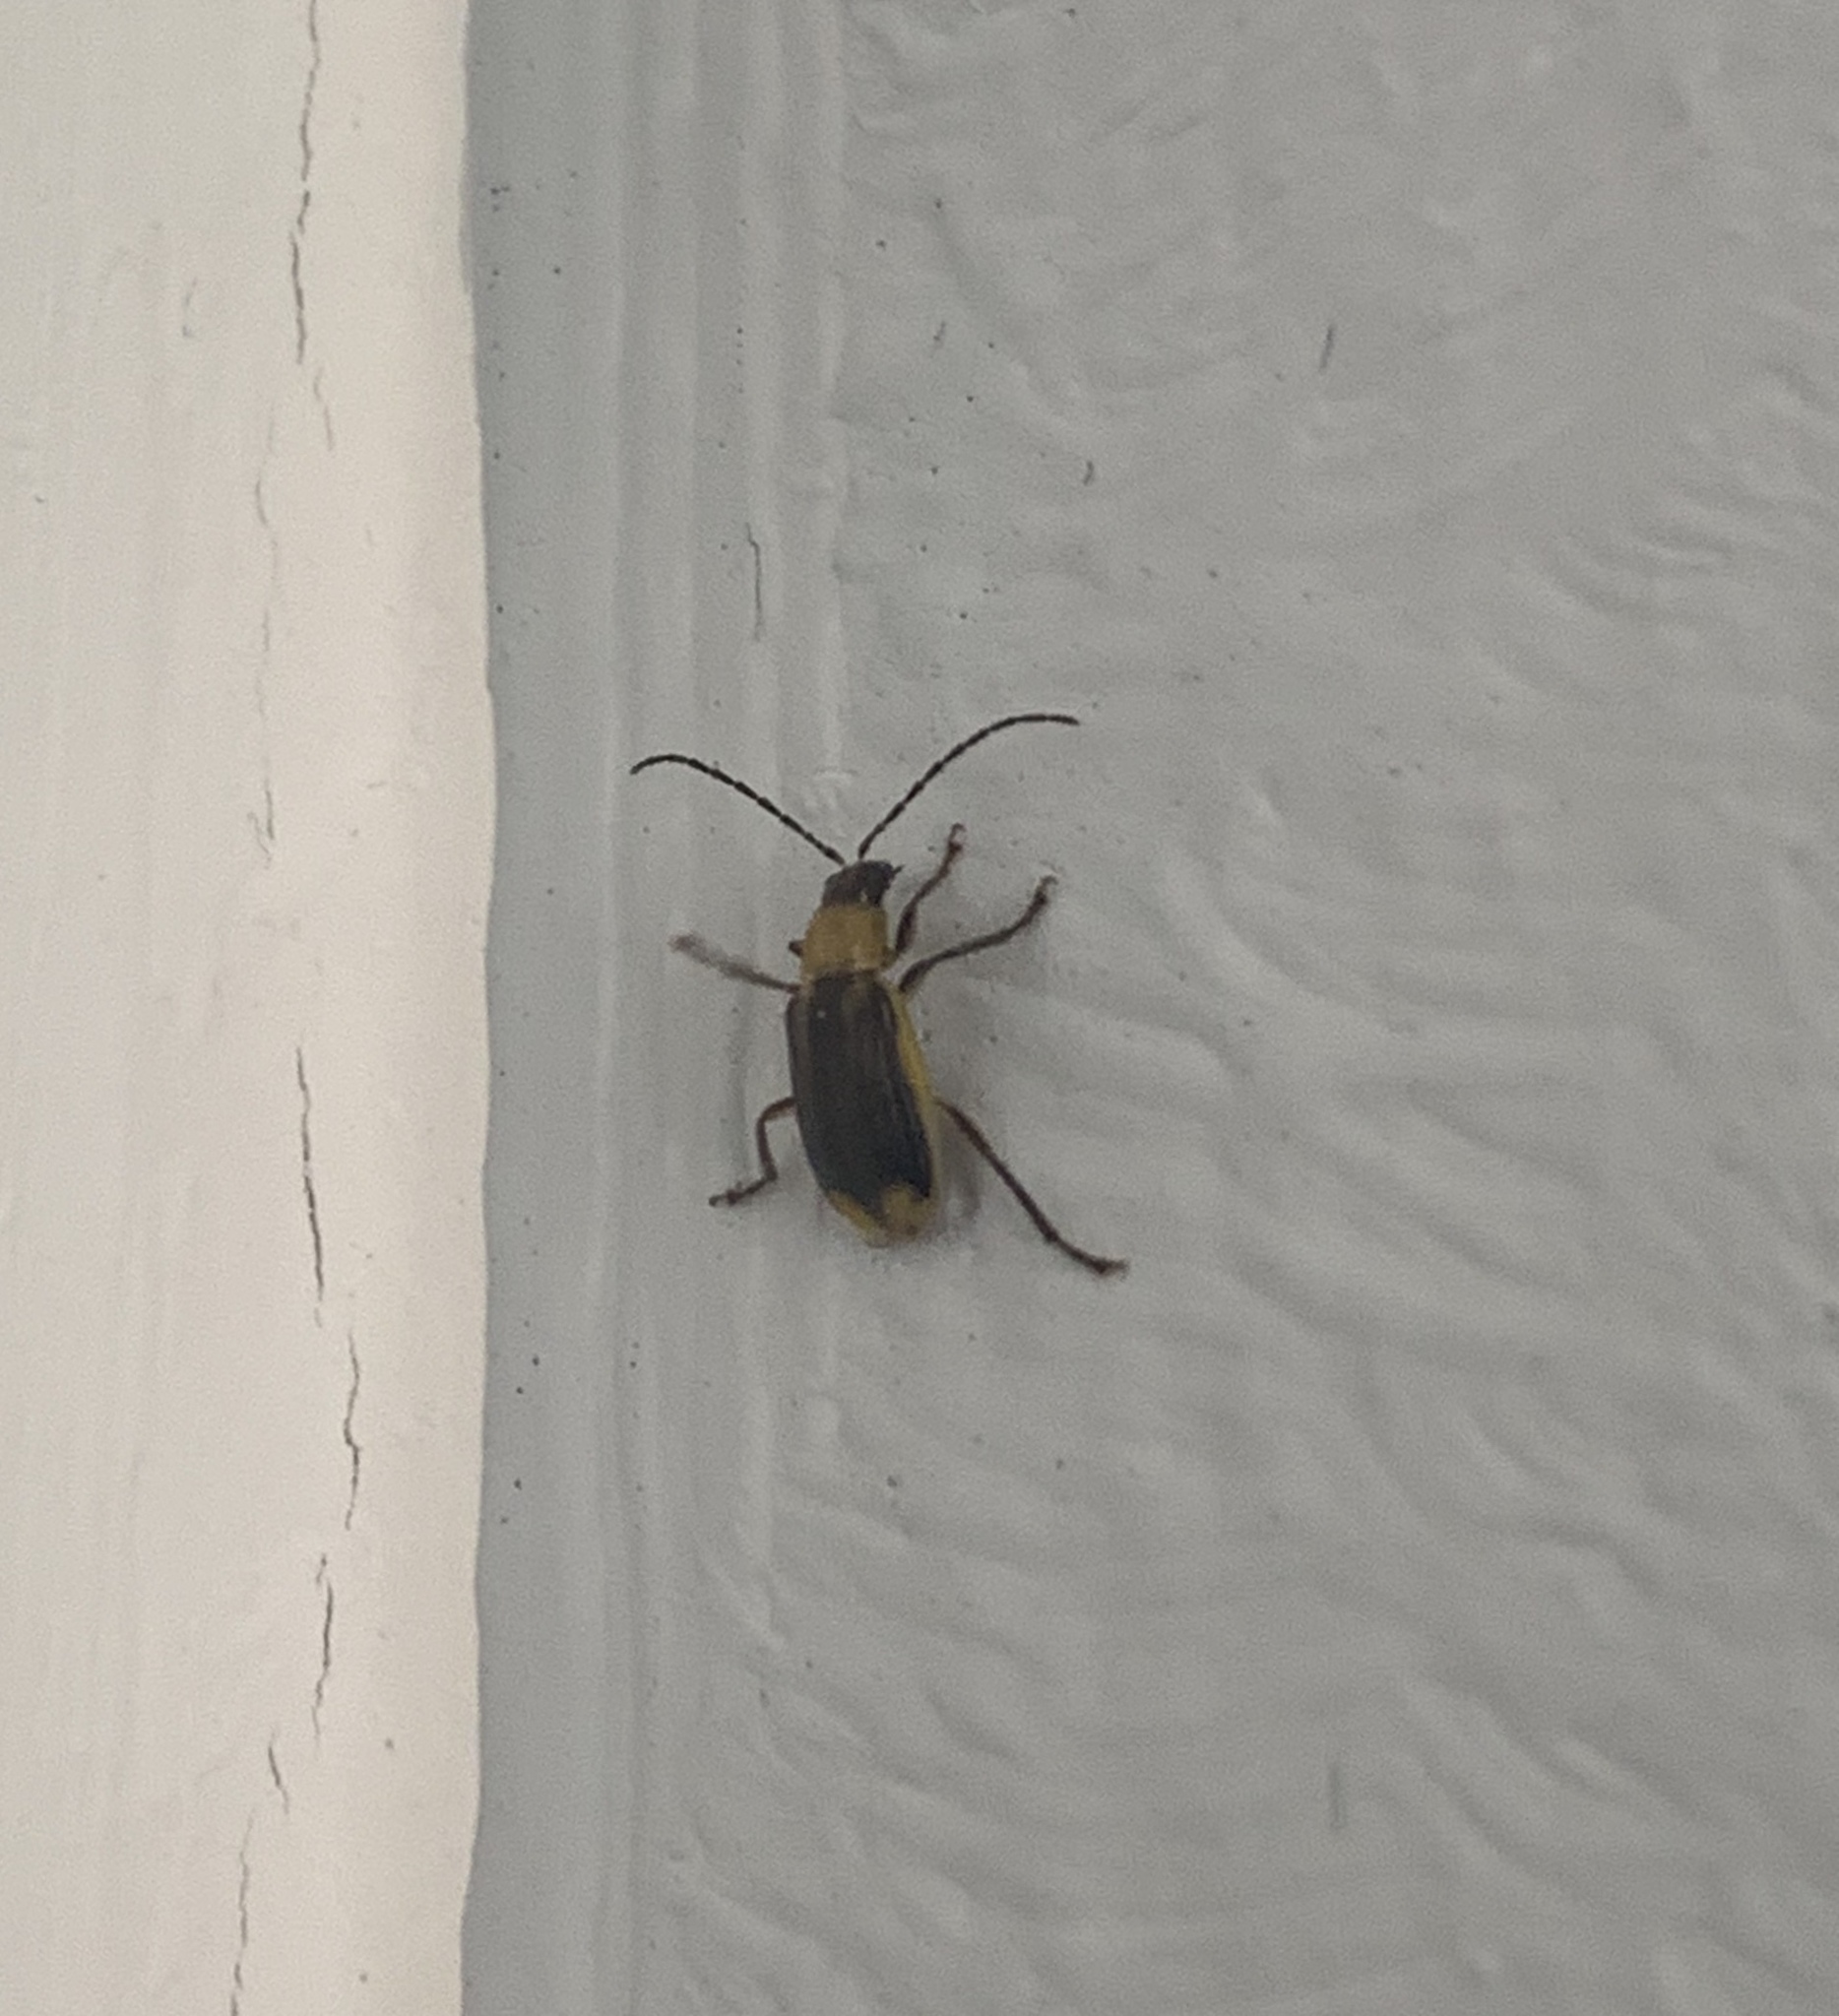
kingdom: Animalia
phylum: Arthropoda
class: Insecta
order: Coleoptera
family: Chrysomelidae
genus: Diabrotica
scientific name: Diabrotica virgifera
